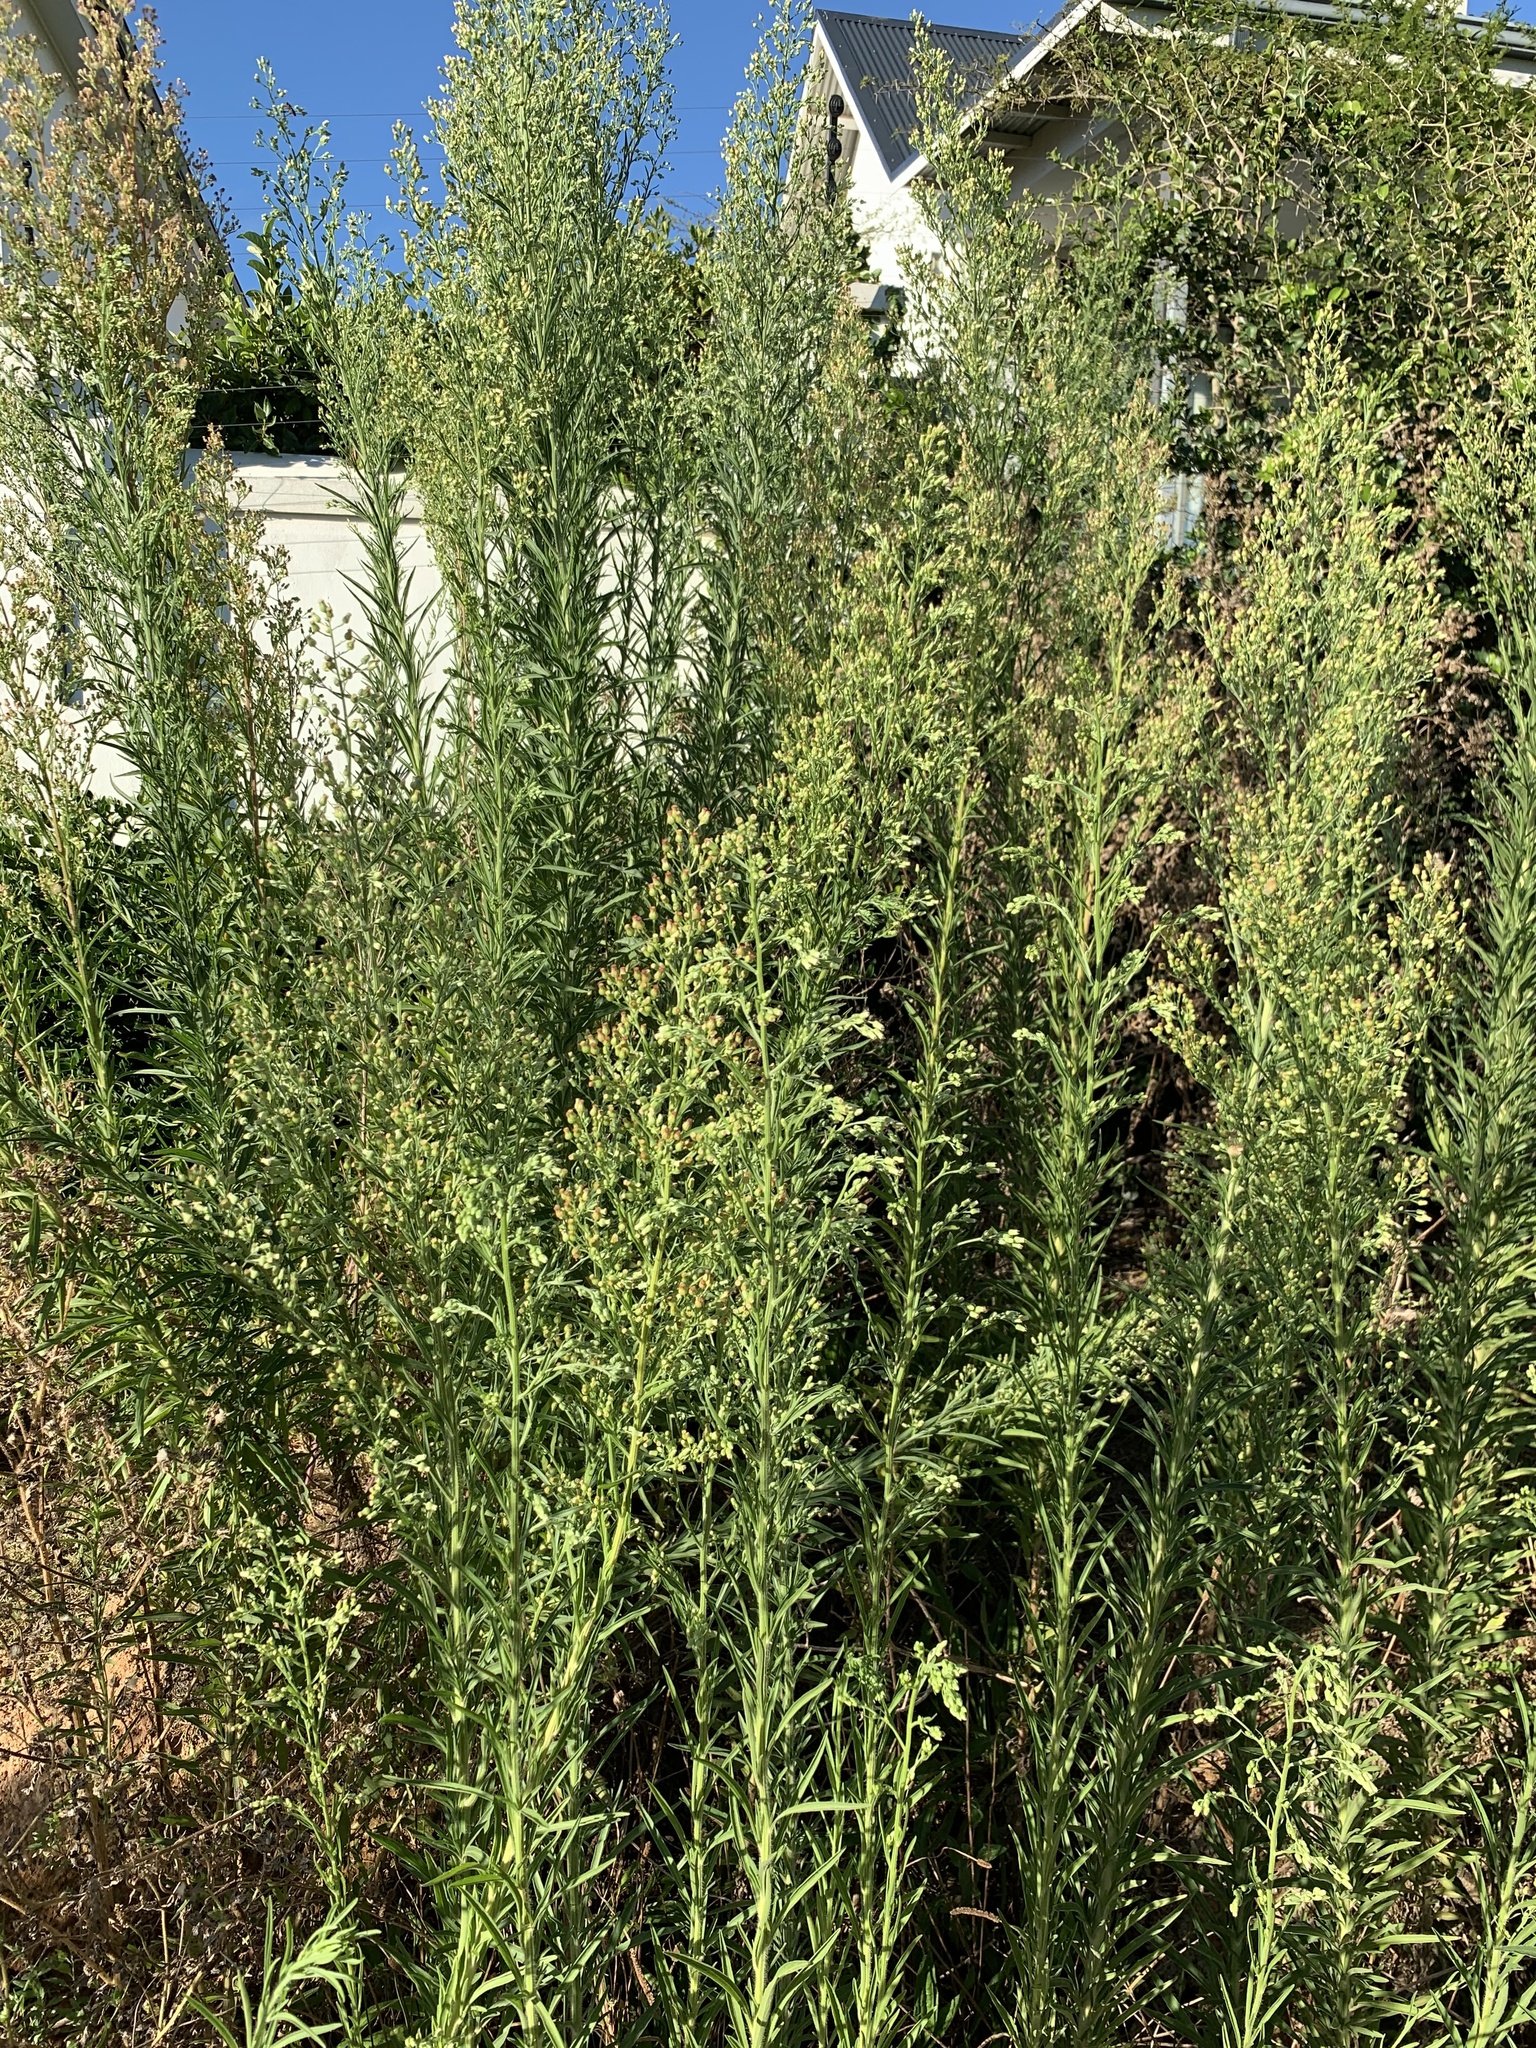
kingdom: Plantae
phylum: Tracheophyta
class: Magnoliopsida
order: Asterales
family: Asteraceae
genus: Erigeron
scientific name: Erigeron sumatrensis
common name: Daisy
